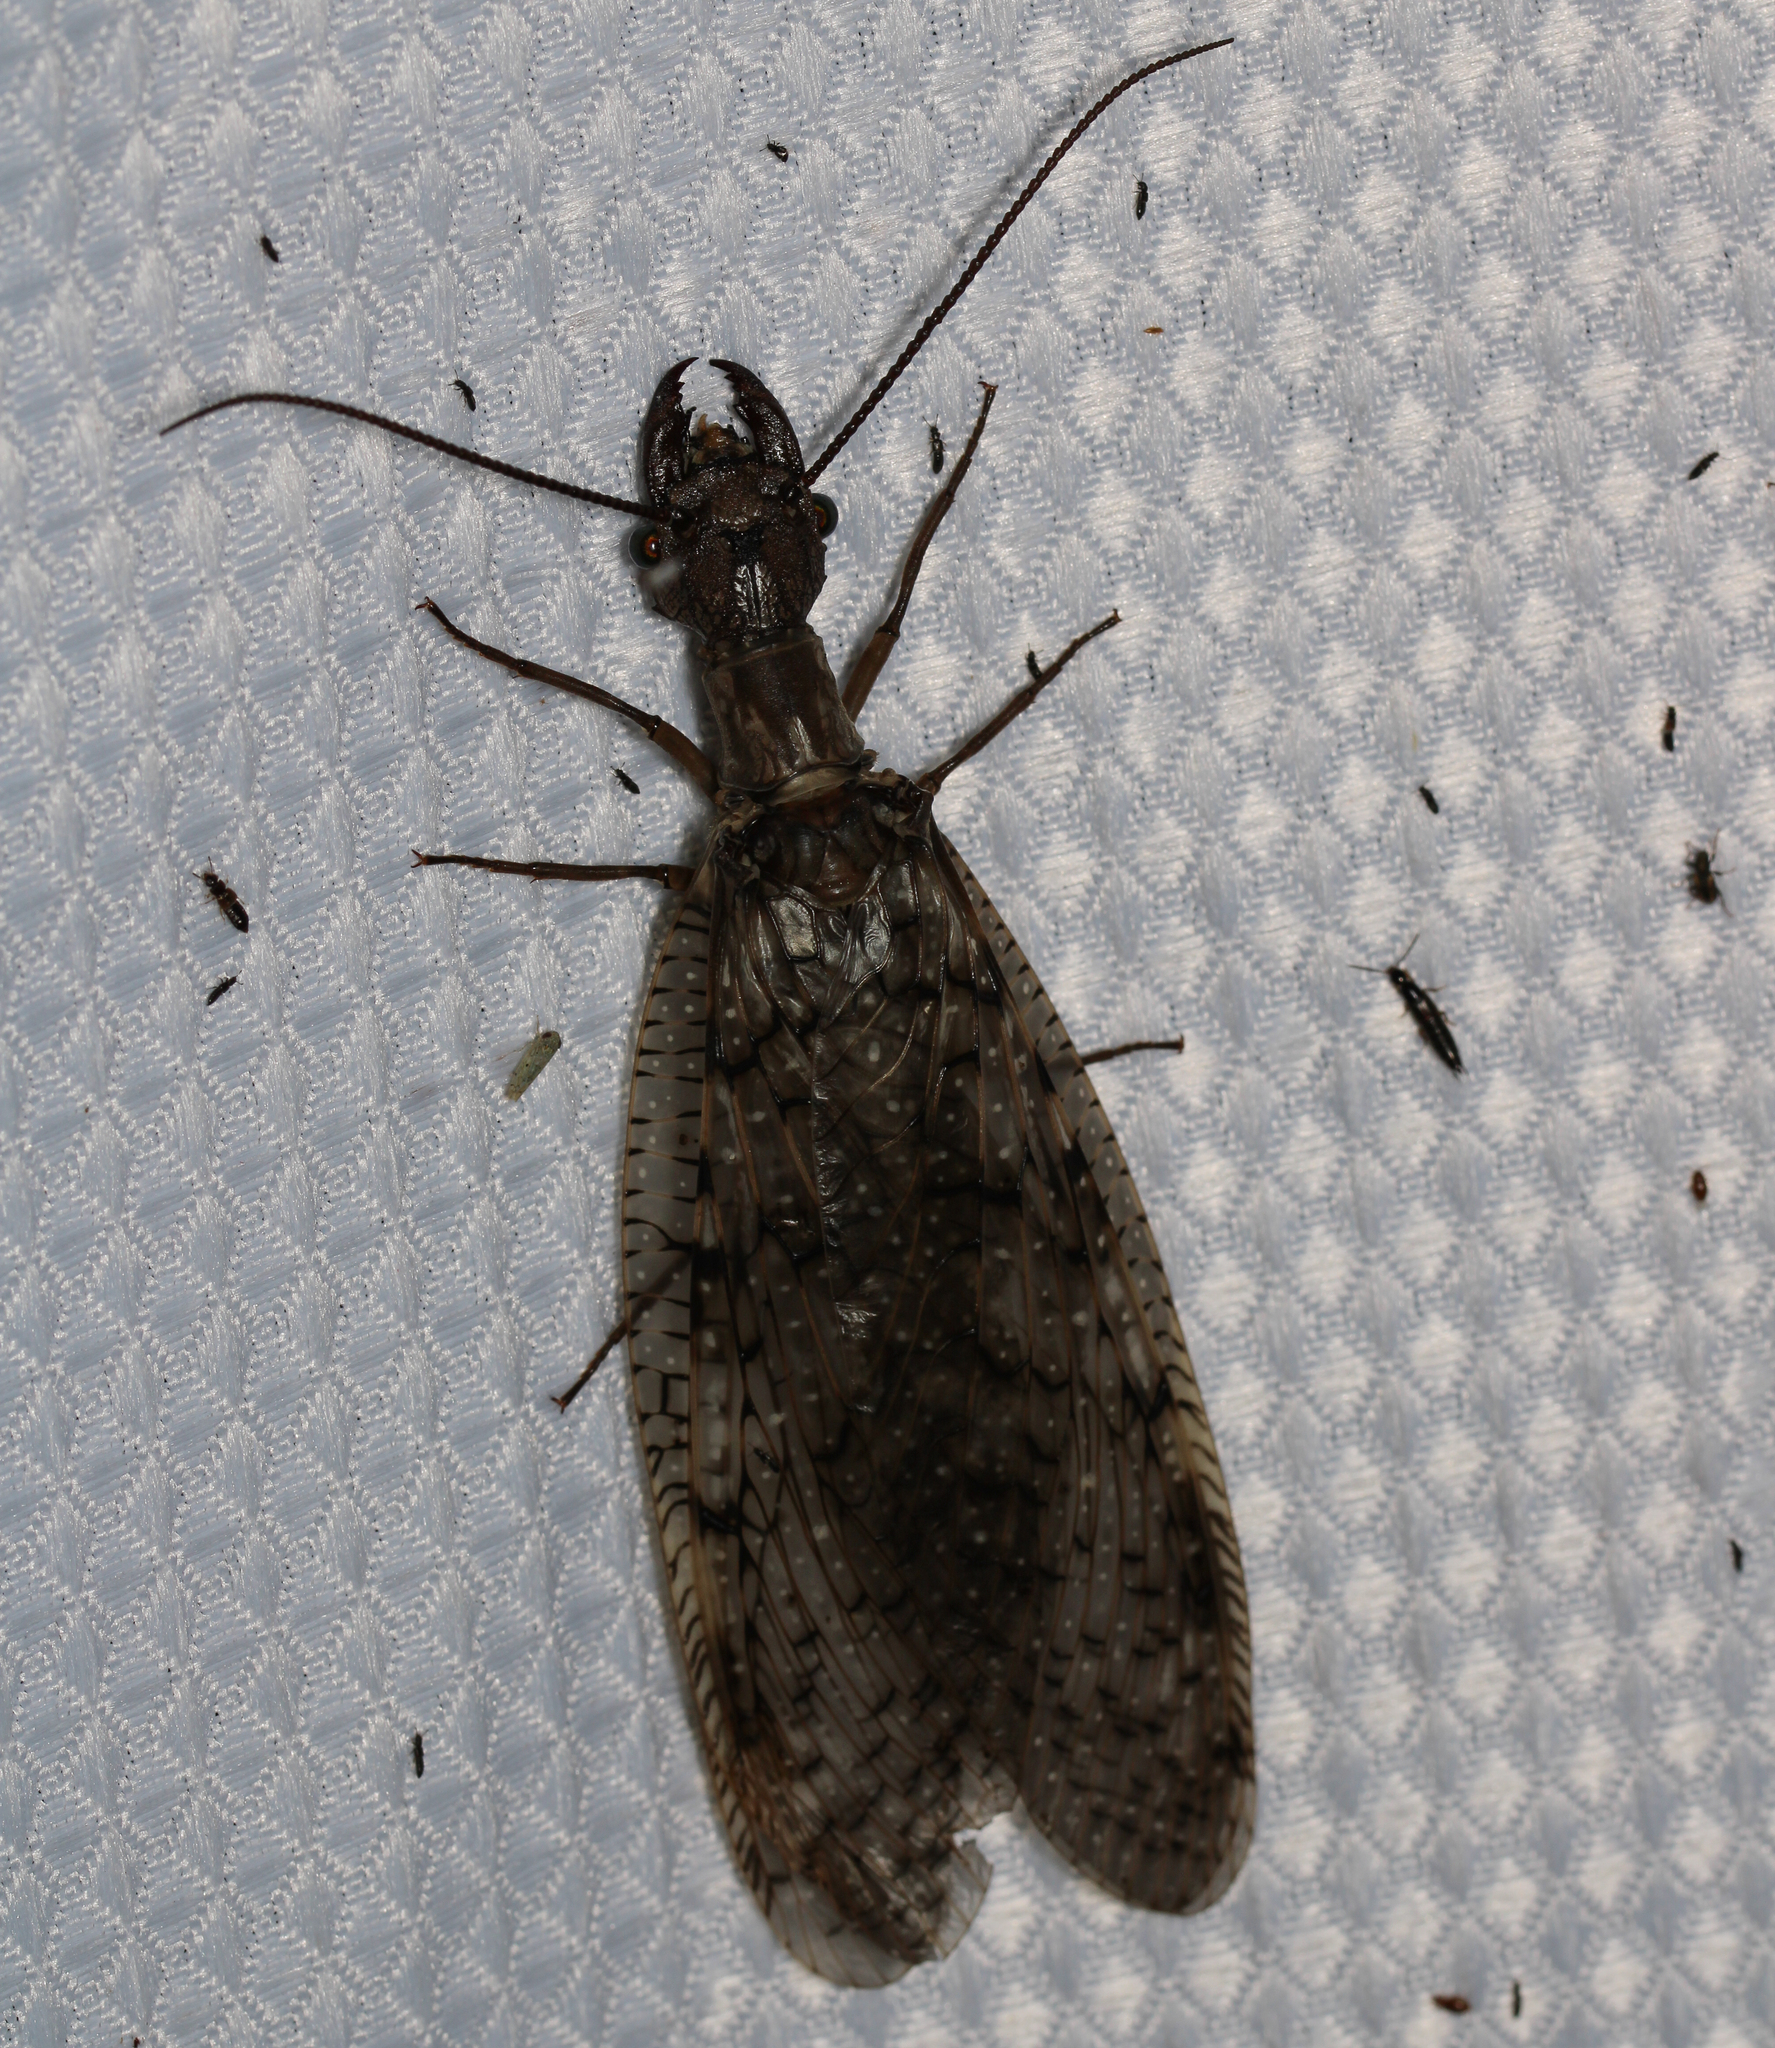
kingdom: Animalia
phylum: Arthropoda
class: Insecta
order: Megaloptera
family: Corydalidae
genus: Corydalus
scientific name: Corydalus cornutus
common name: Dobsonfly
